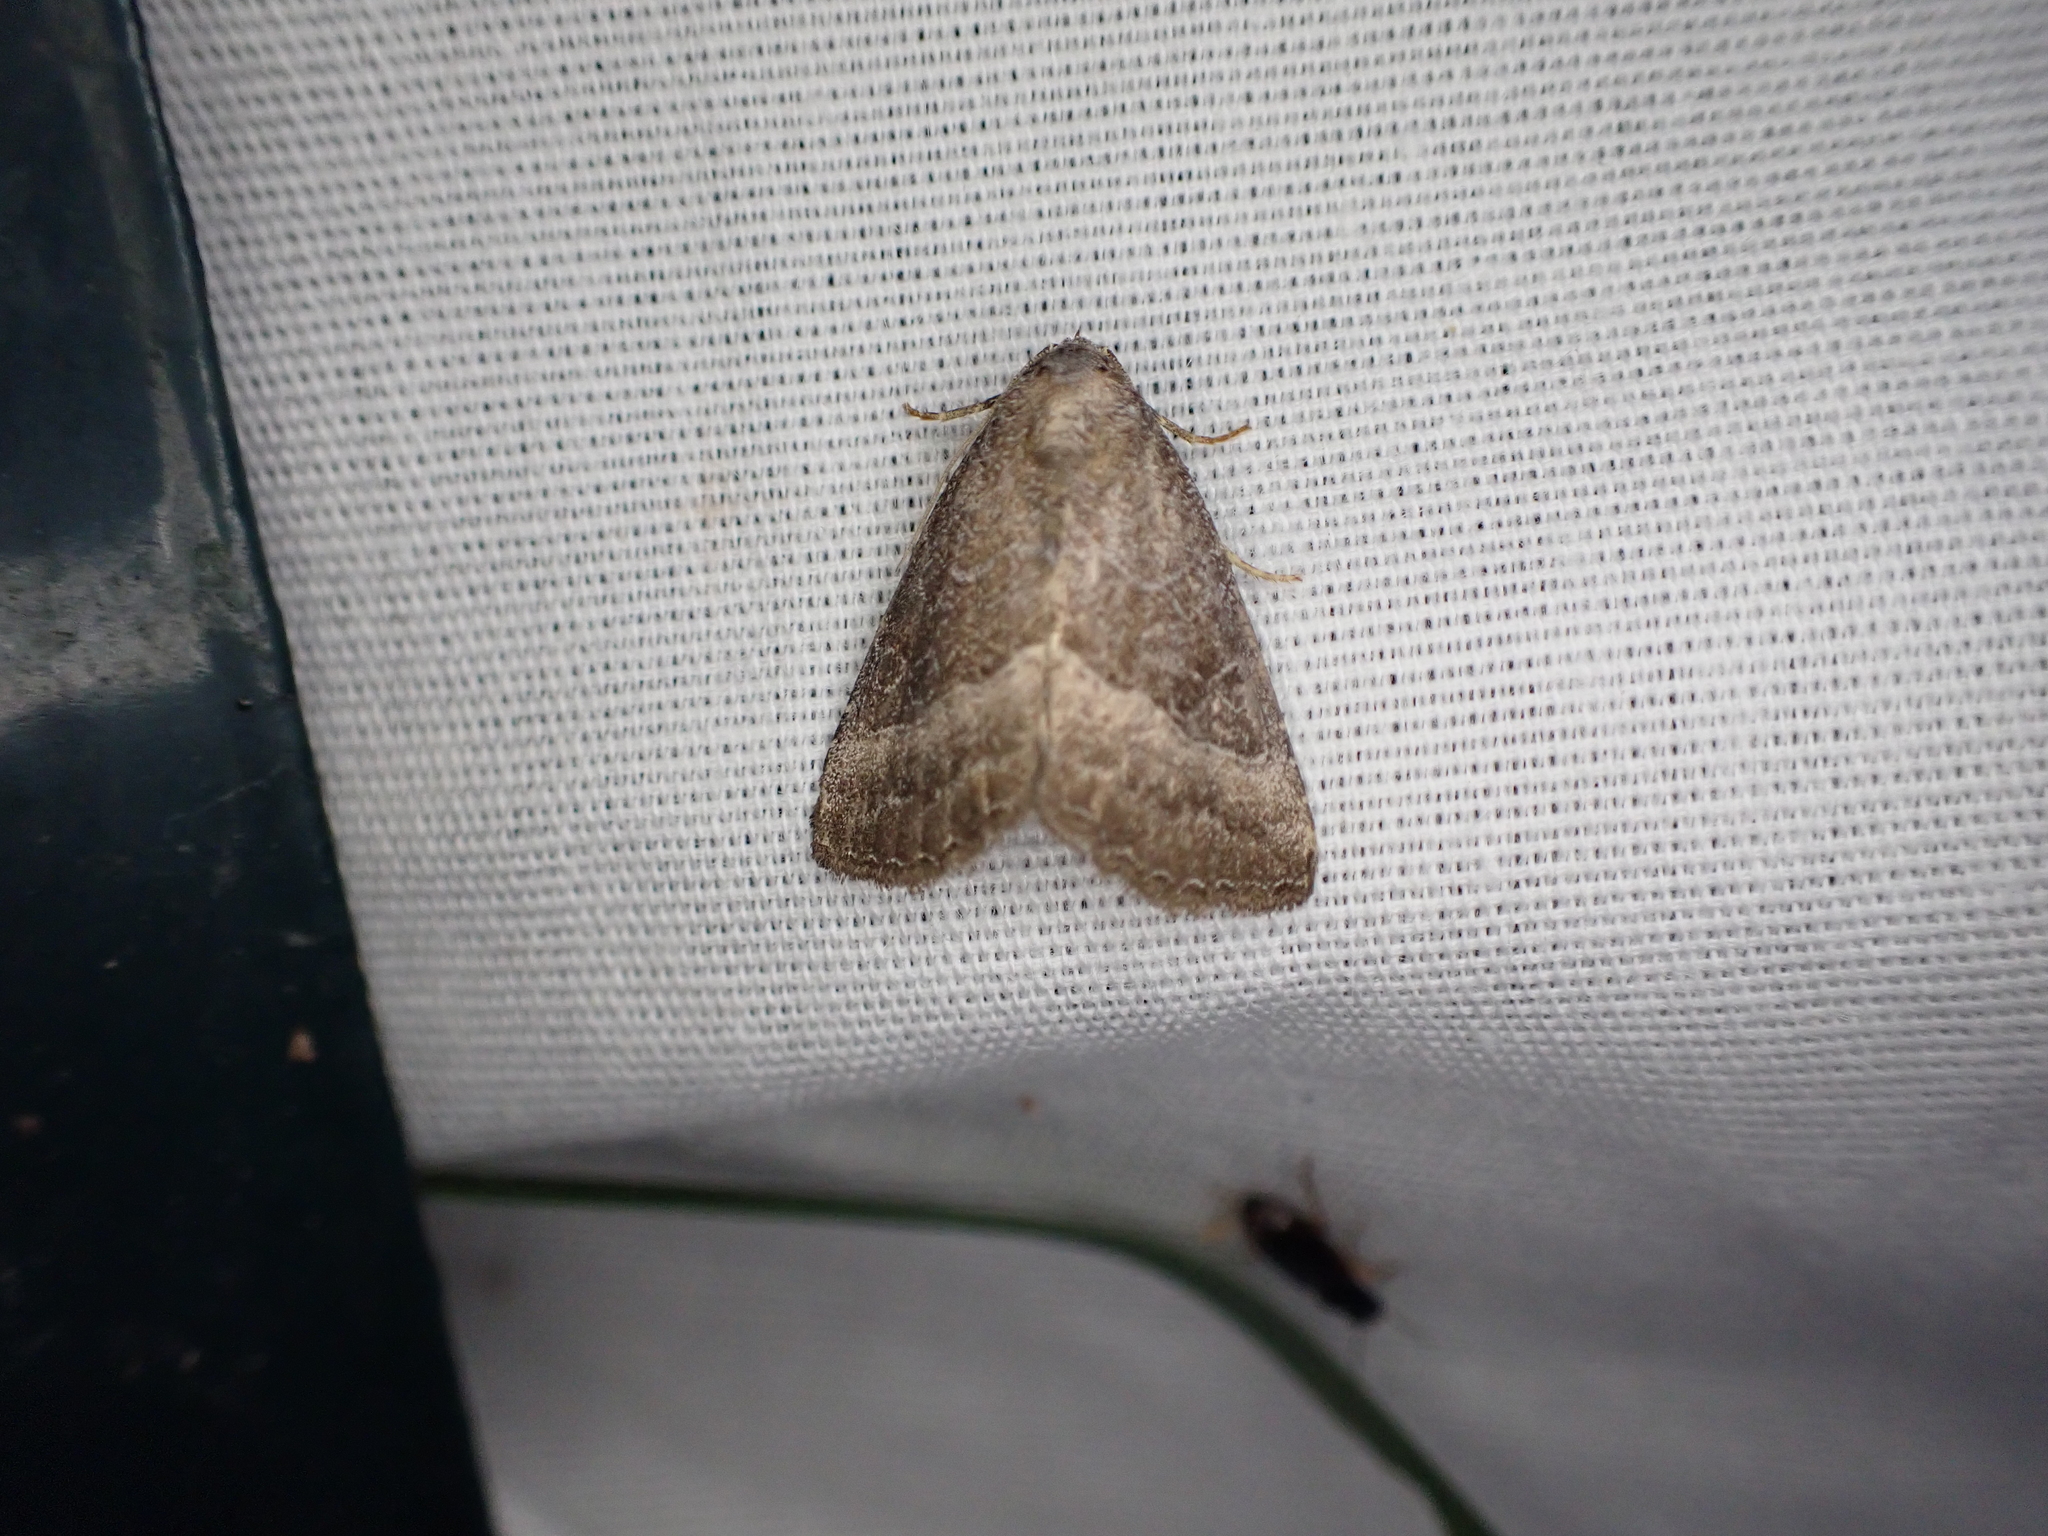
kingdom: Animalia
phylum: Arthropoda
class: Insecta
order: Lepidoptera
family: Noctuidae
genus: Ogdoconta
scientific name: Ogdoconta cinereola
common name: Common pinkband
